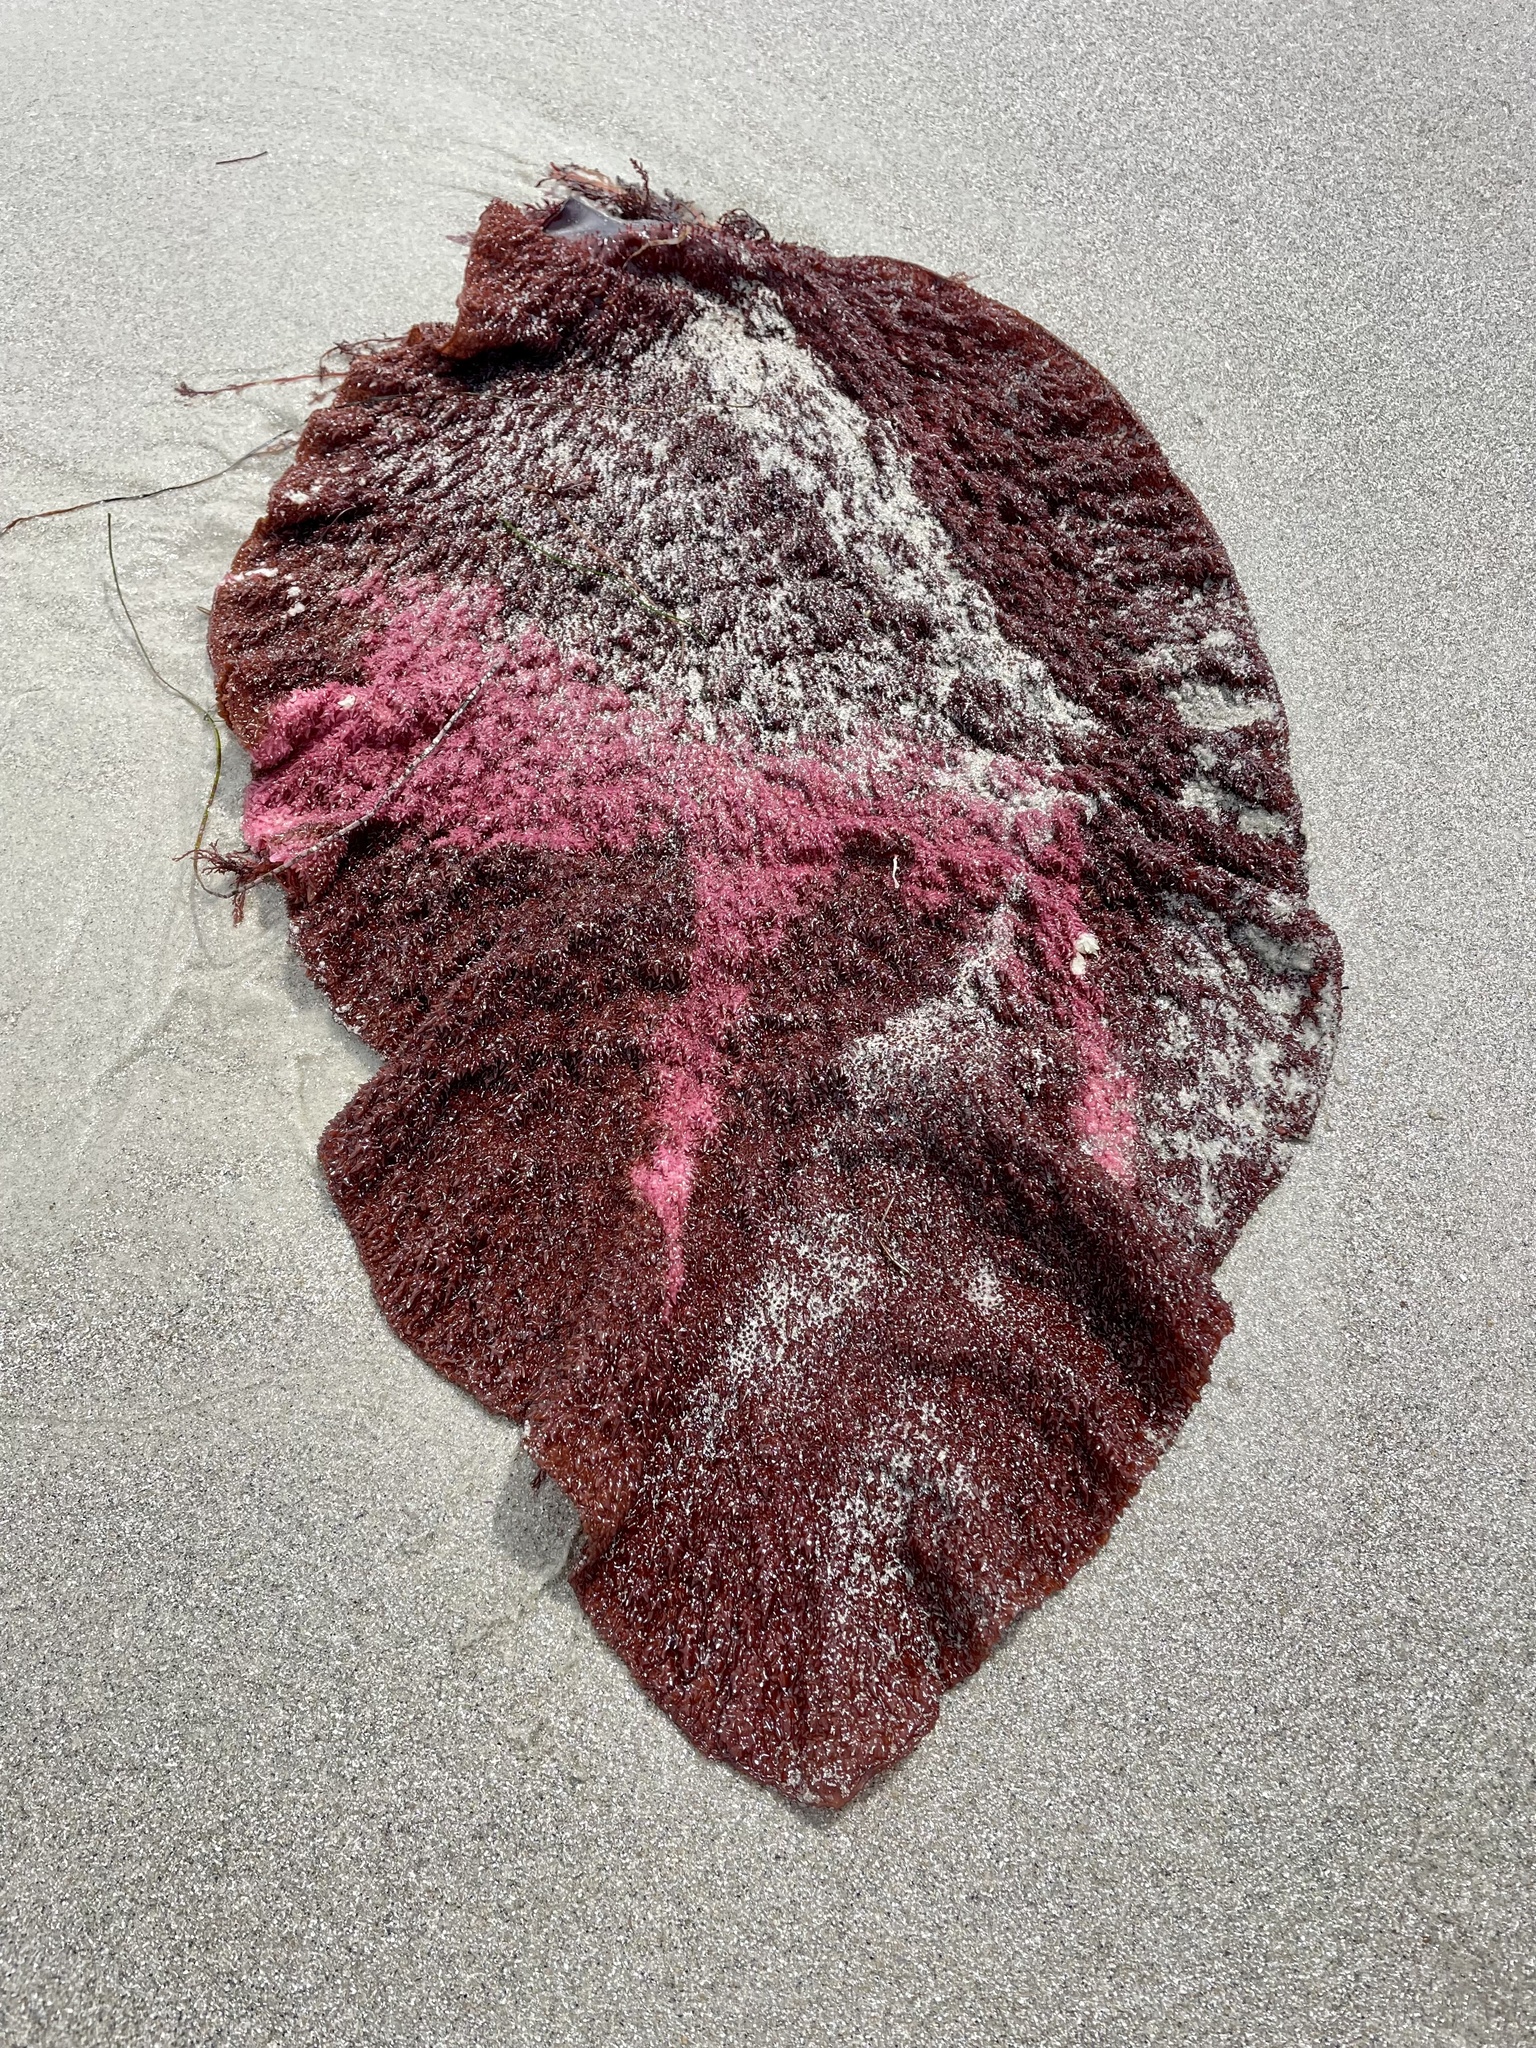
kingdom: Plantae
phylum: Rhodophyta
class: Florideophyceae
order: Gigartinales
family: Gigartinaceae
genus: Chondracanthus
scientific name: Chondracanthus exasperatus
